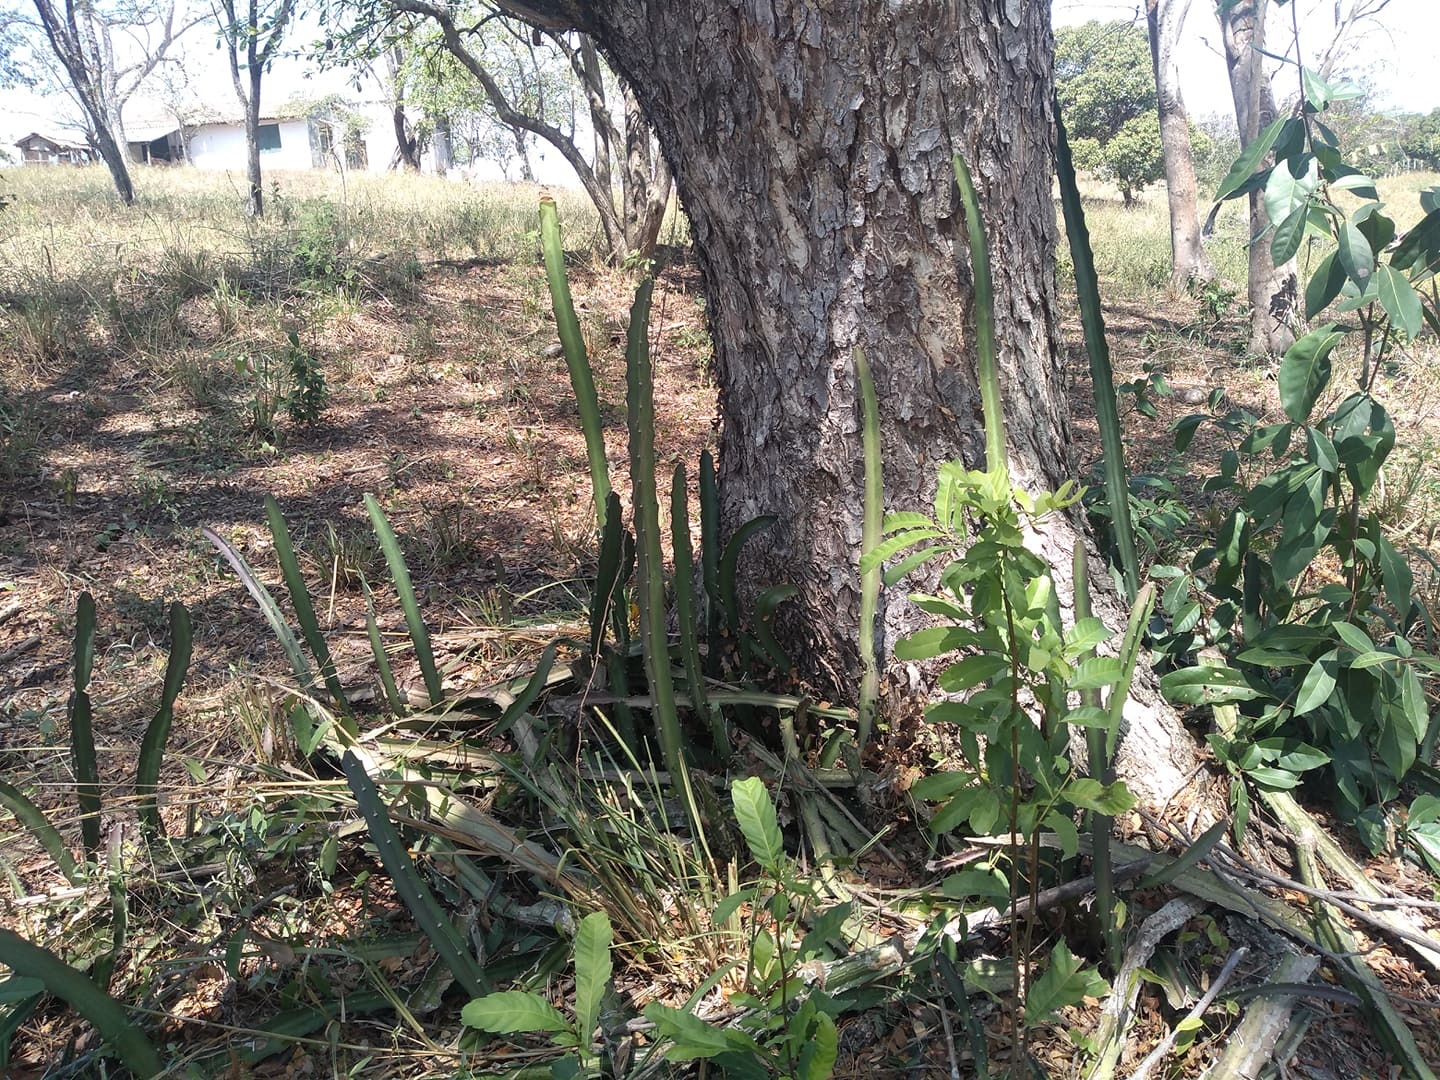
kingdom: Plantae
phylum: Tracheophyta
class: Magnoliopsida
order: Caryophyllales
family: Cactaceae
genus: Acanthocereus
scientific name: Acanthocereus tetragonus
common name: Triangle cactus
